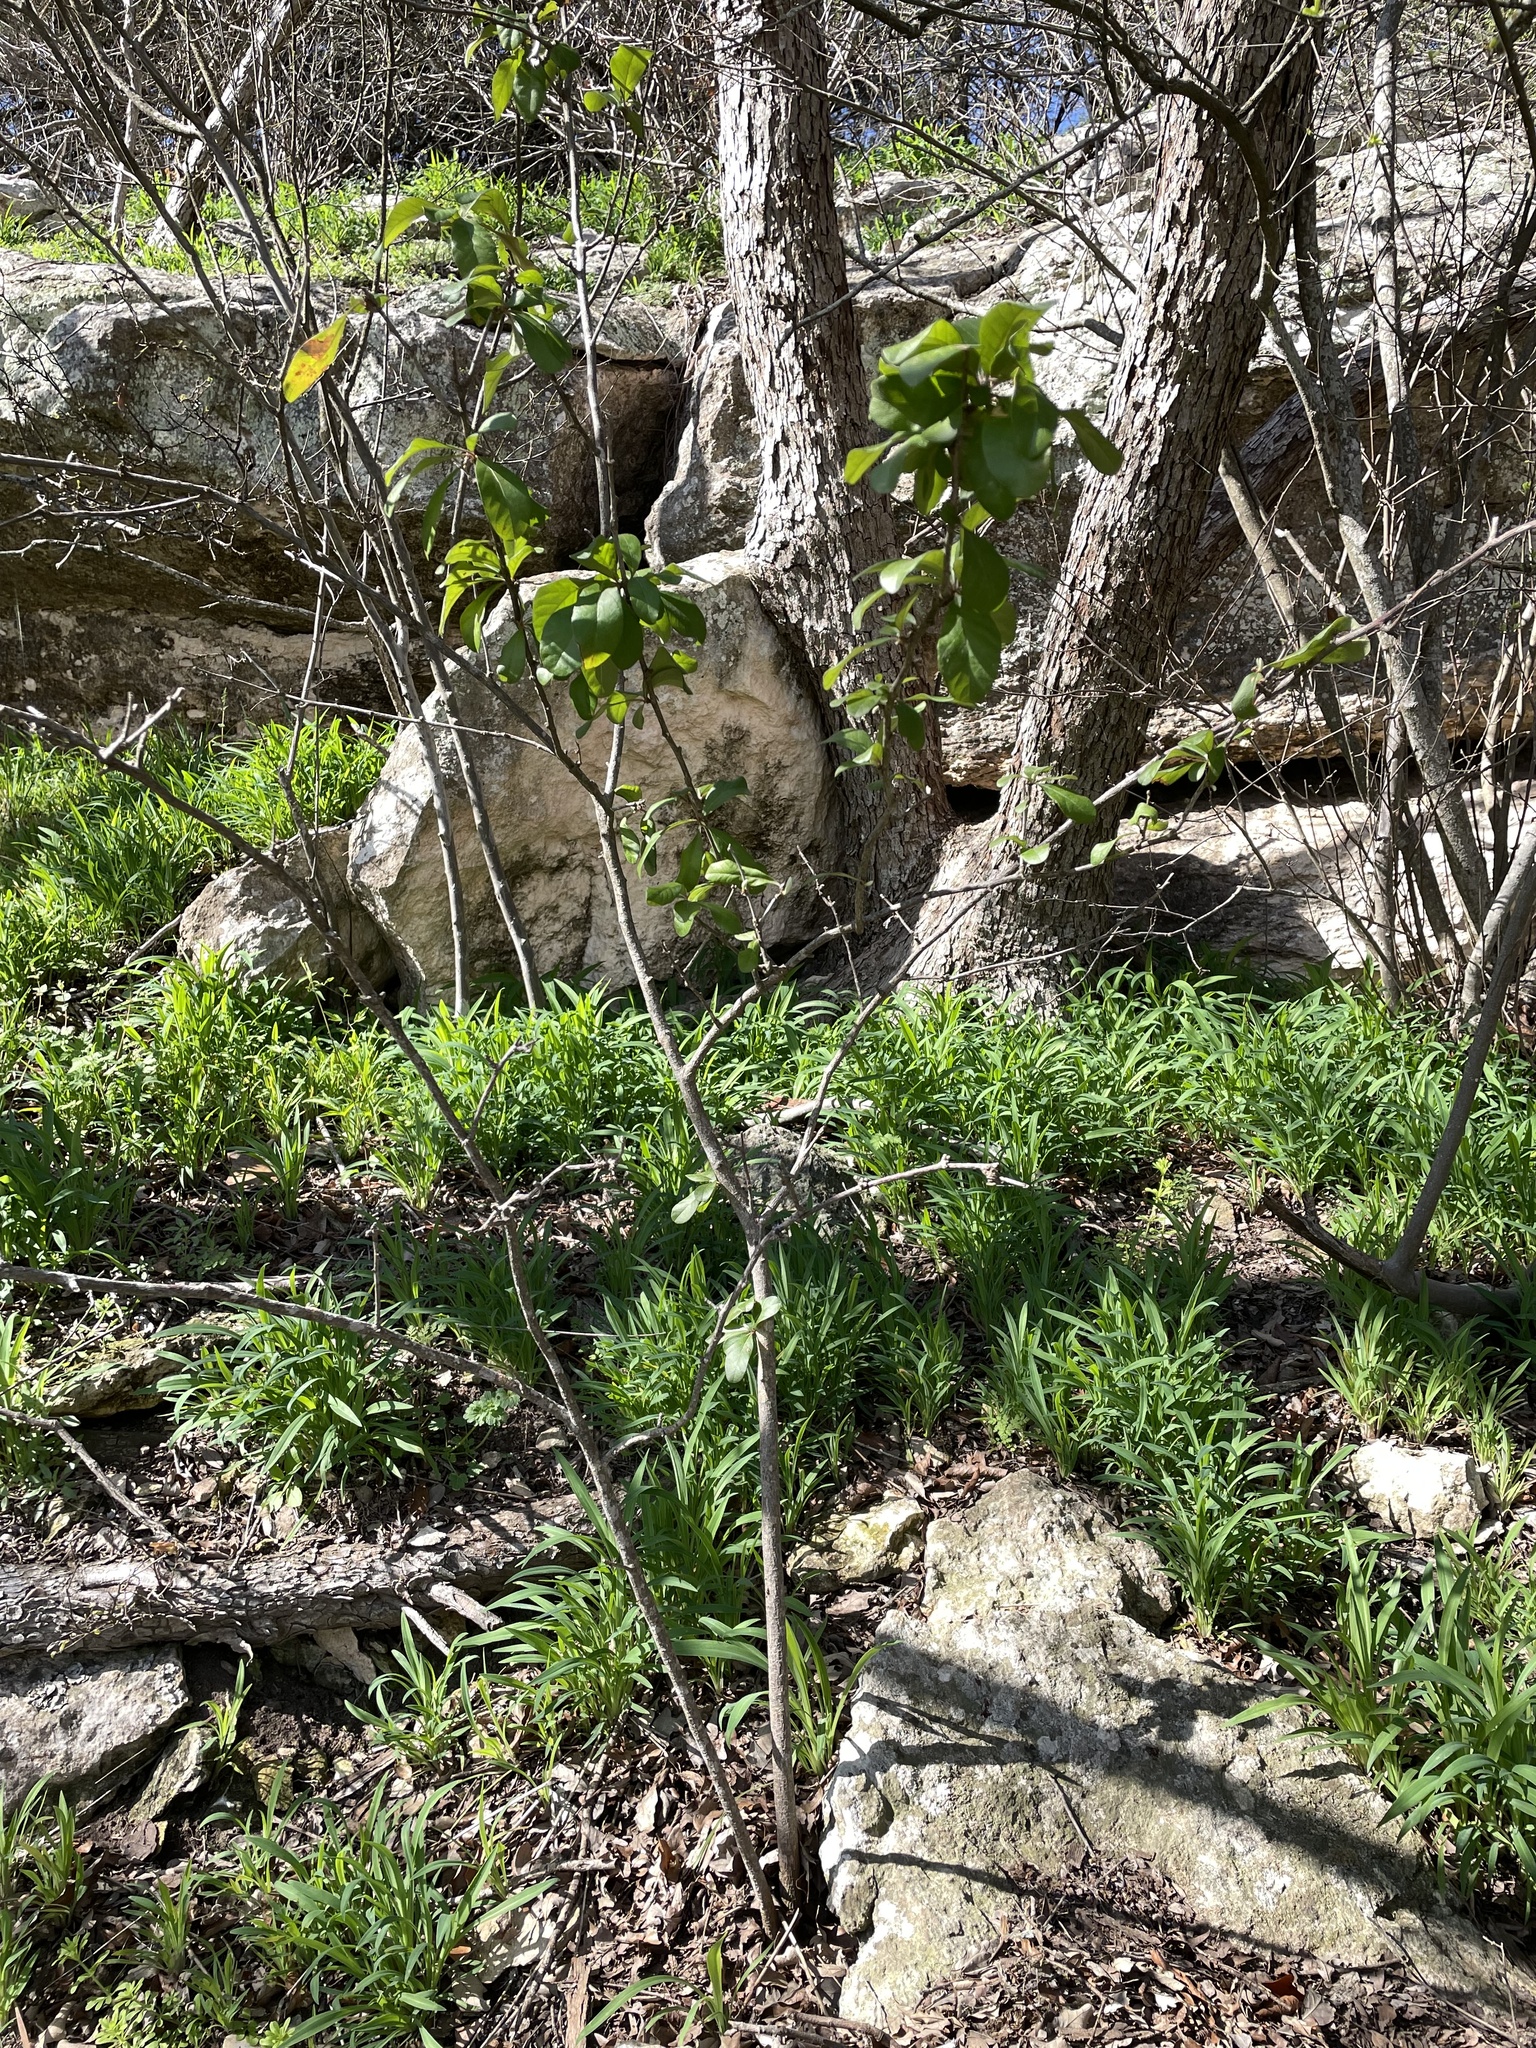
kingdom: Plantae
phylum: Tracheophyta
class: Magnoliopsida
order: Ericales
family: Sapotaceae
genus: Sideroxylon
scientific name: Sideroxylon lanuginosum
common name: Chittamwood
